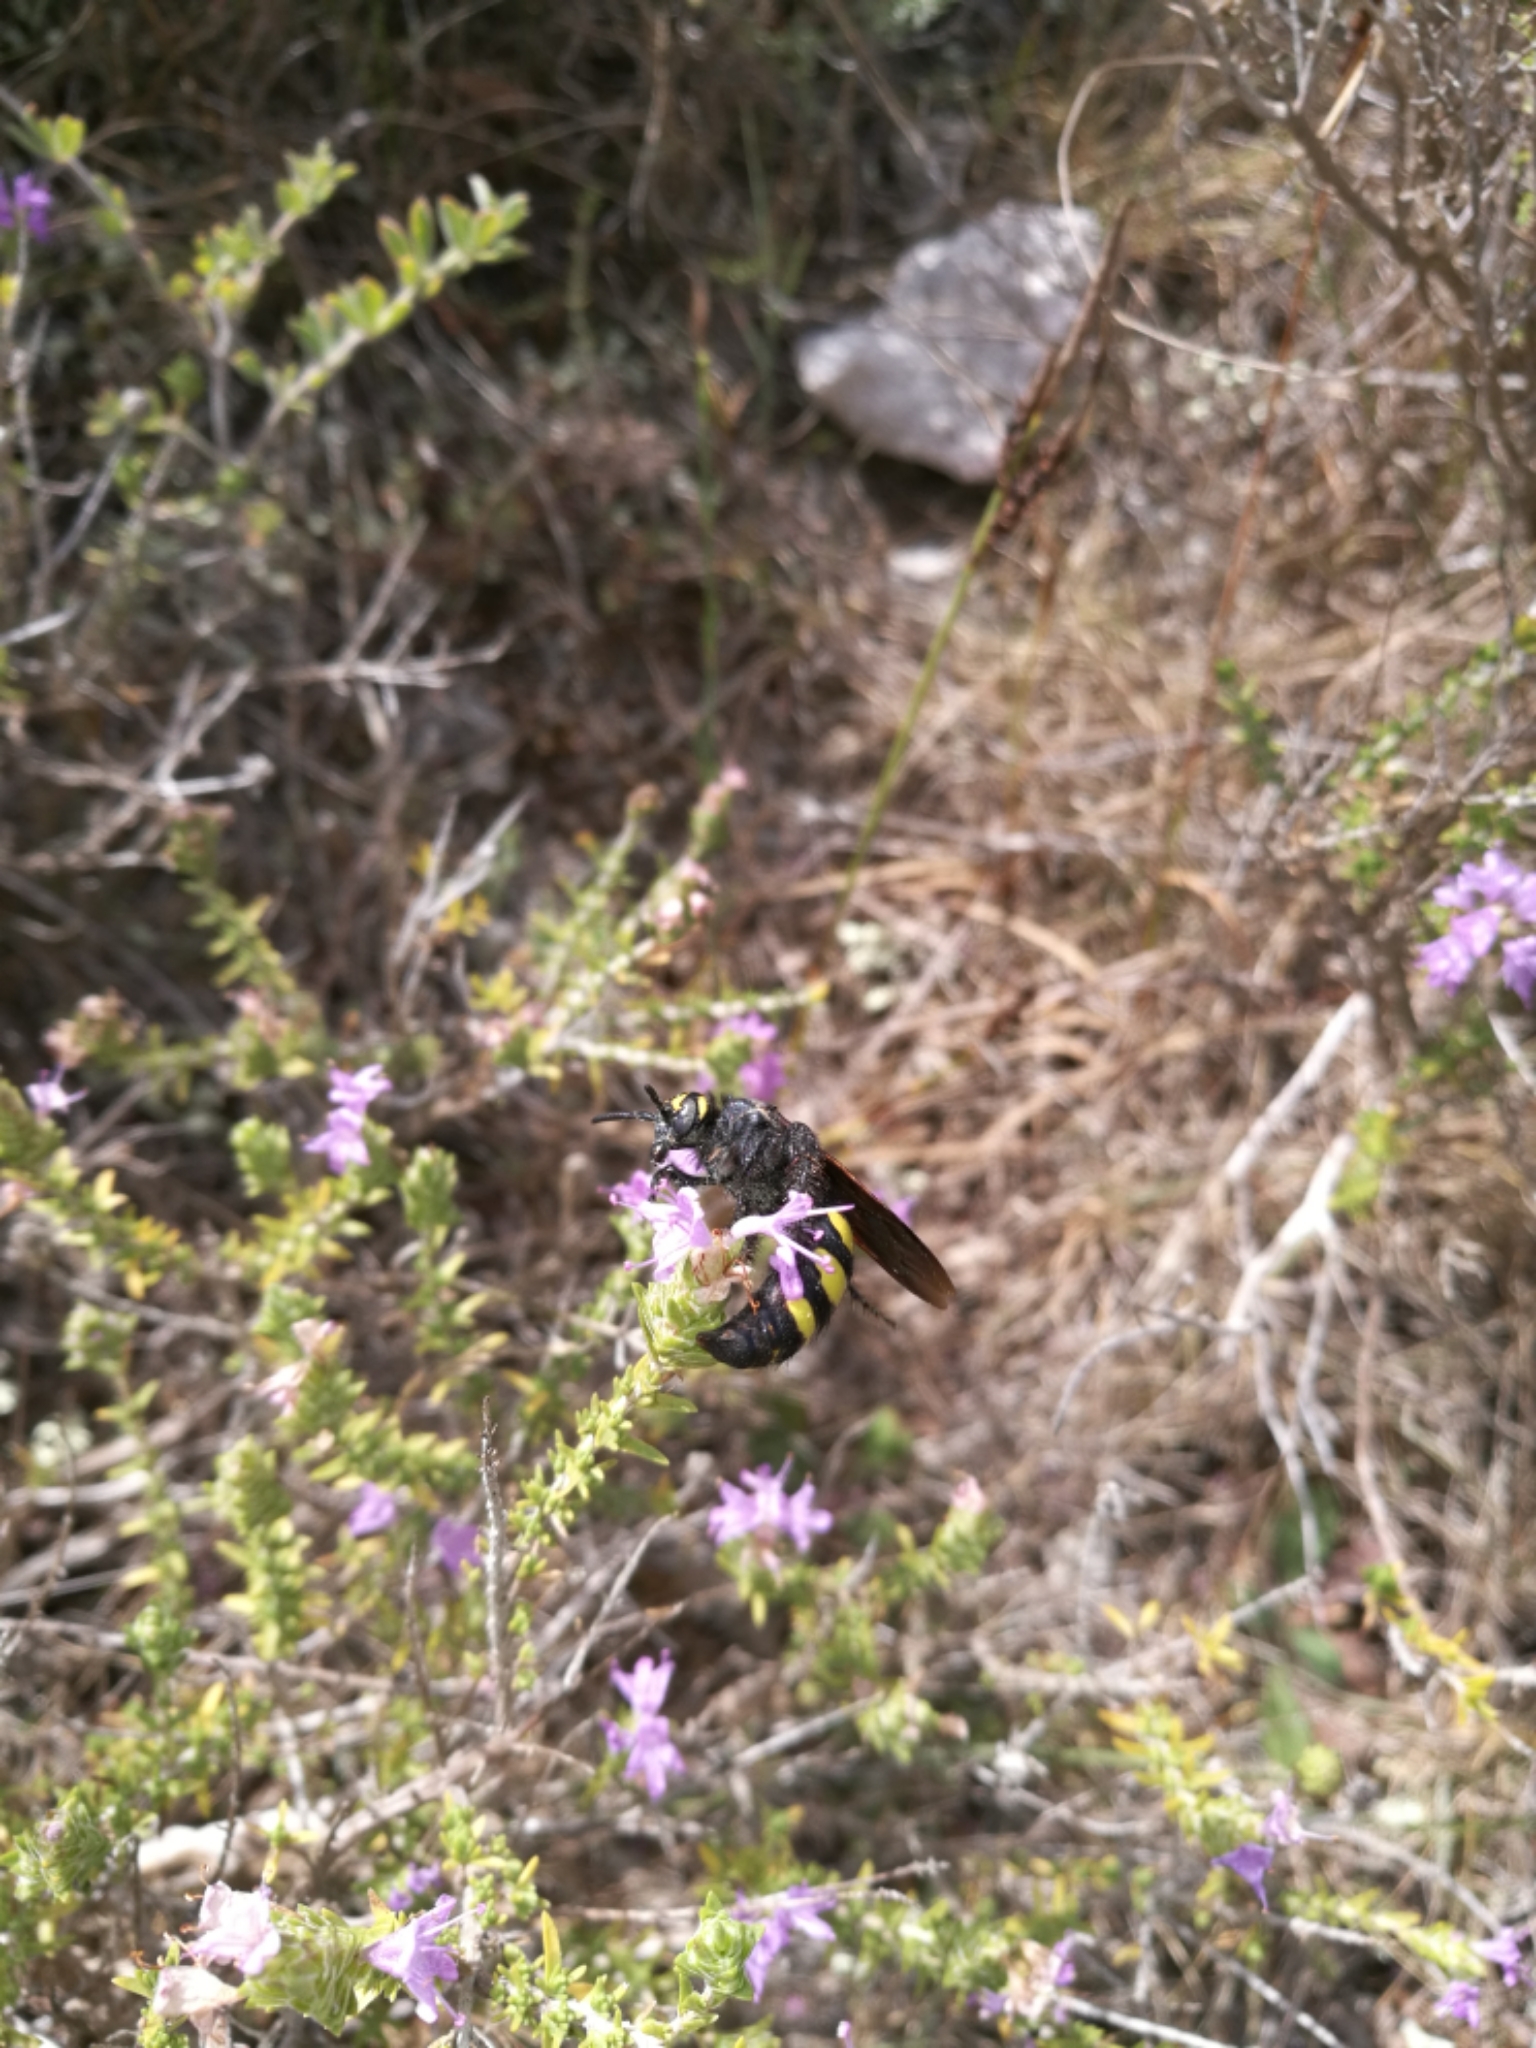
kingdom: Animalia
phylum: Arthropoda
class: Insecta
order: Hymenoptera
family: Vespidae
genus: Vespa
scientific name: Vespa sexmaculata
